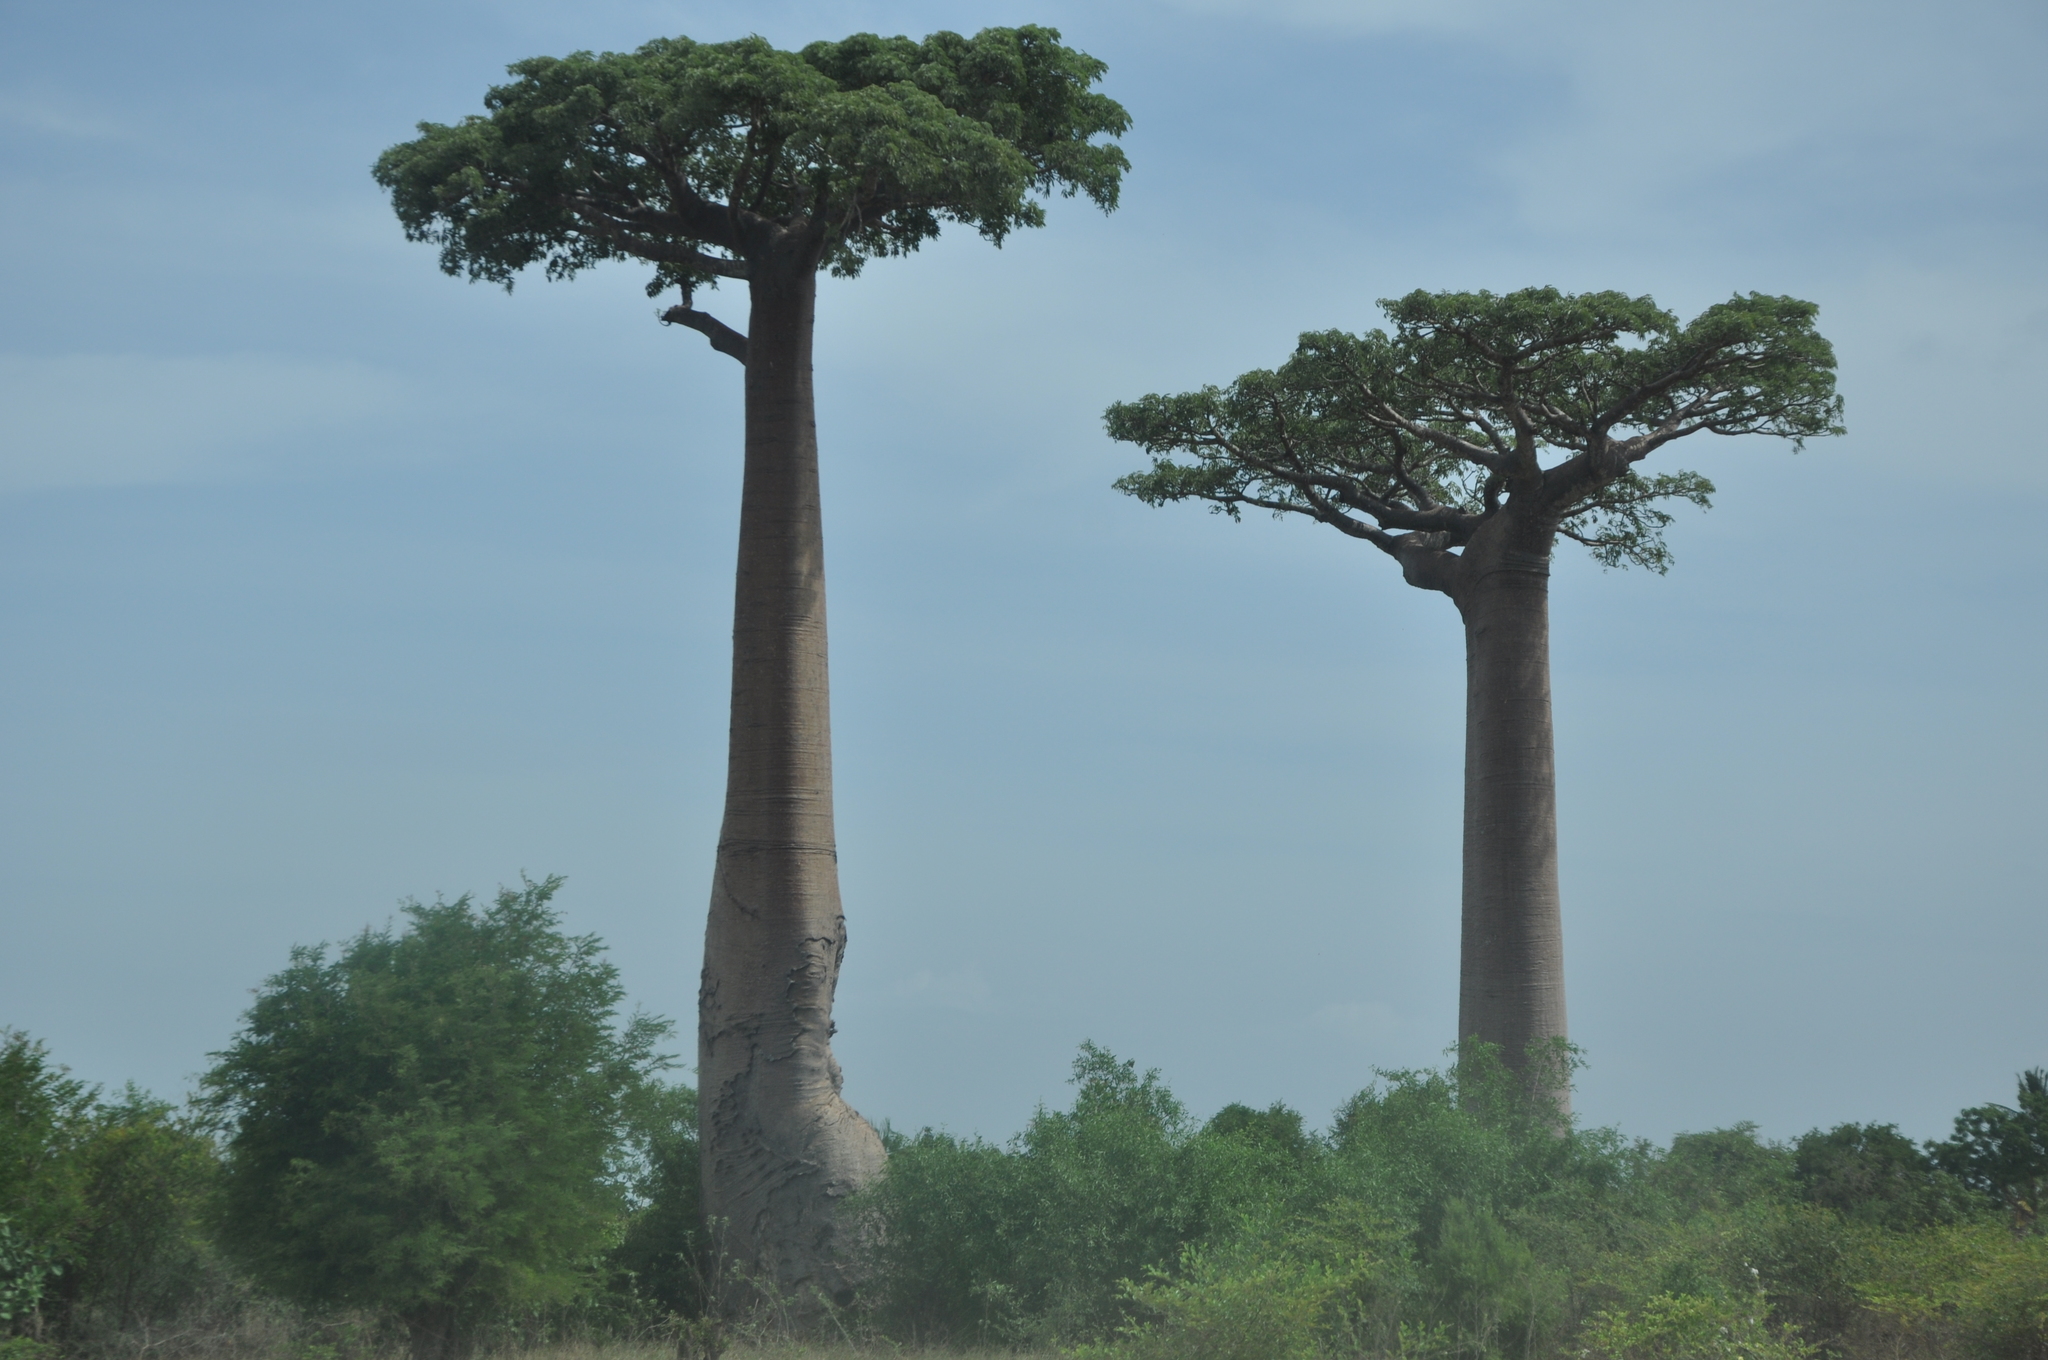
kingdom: Plantae
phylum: Tracheophyta
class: Magnoliopsida
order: Malvales
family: Malvaceae
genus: Adansonia
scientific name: Adansonia grandidieri
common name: Grandidier's baobab
